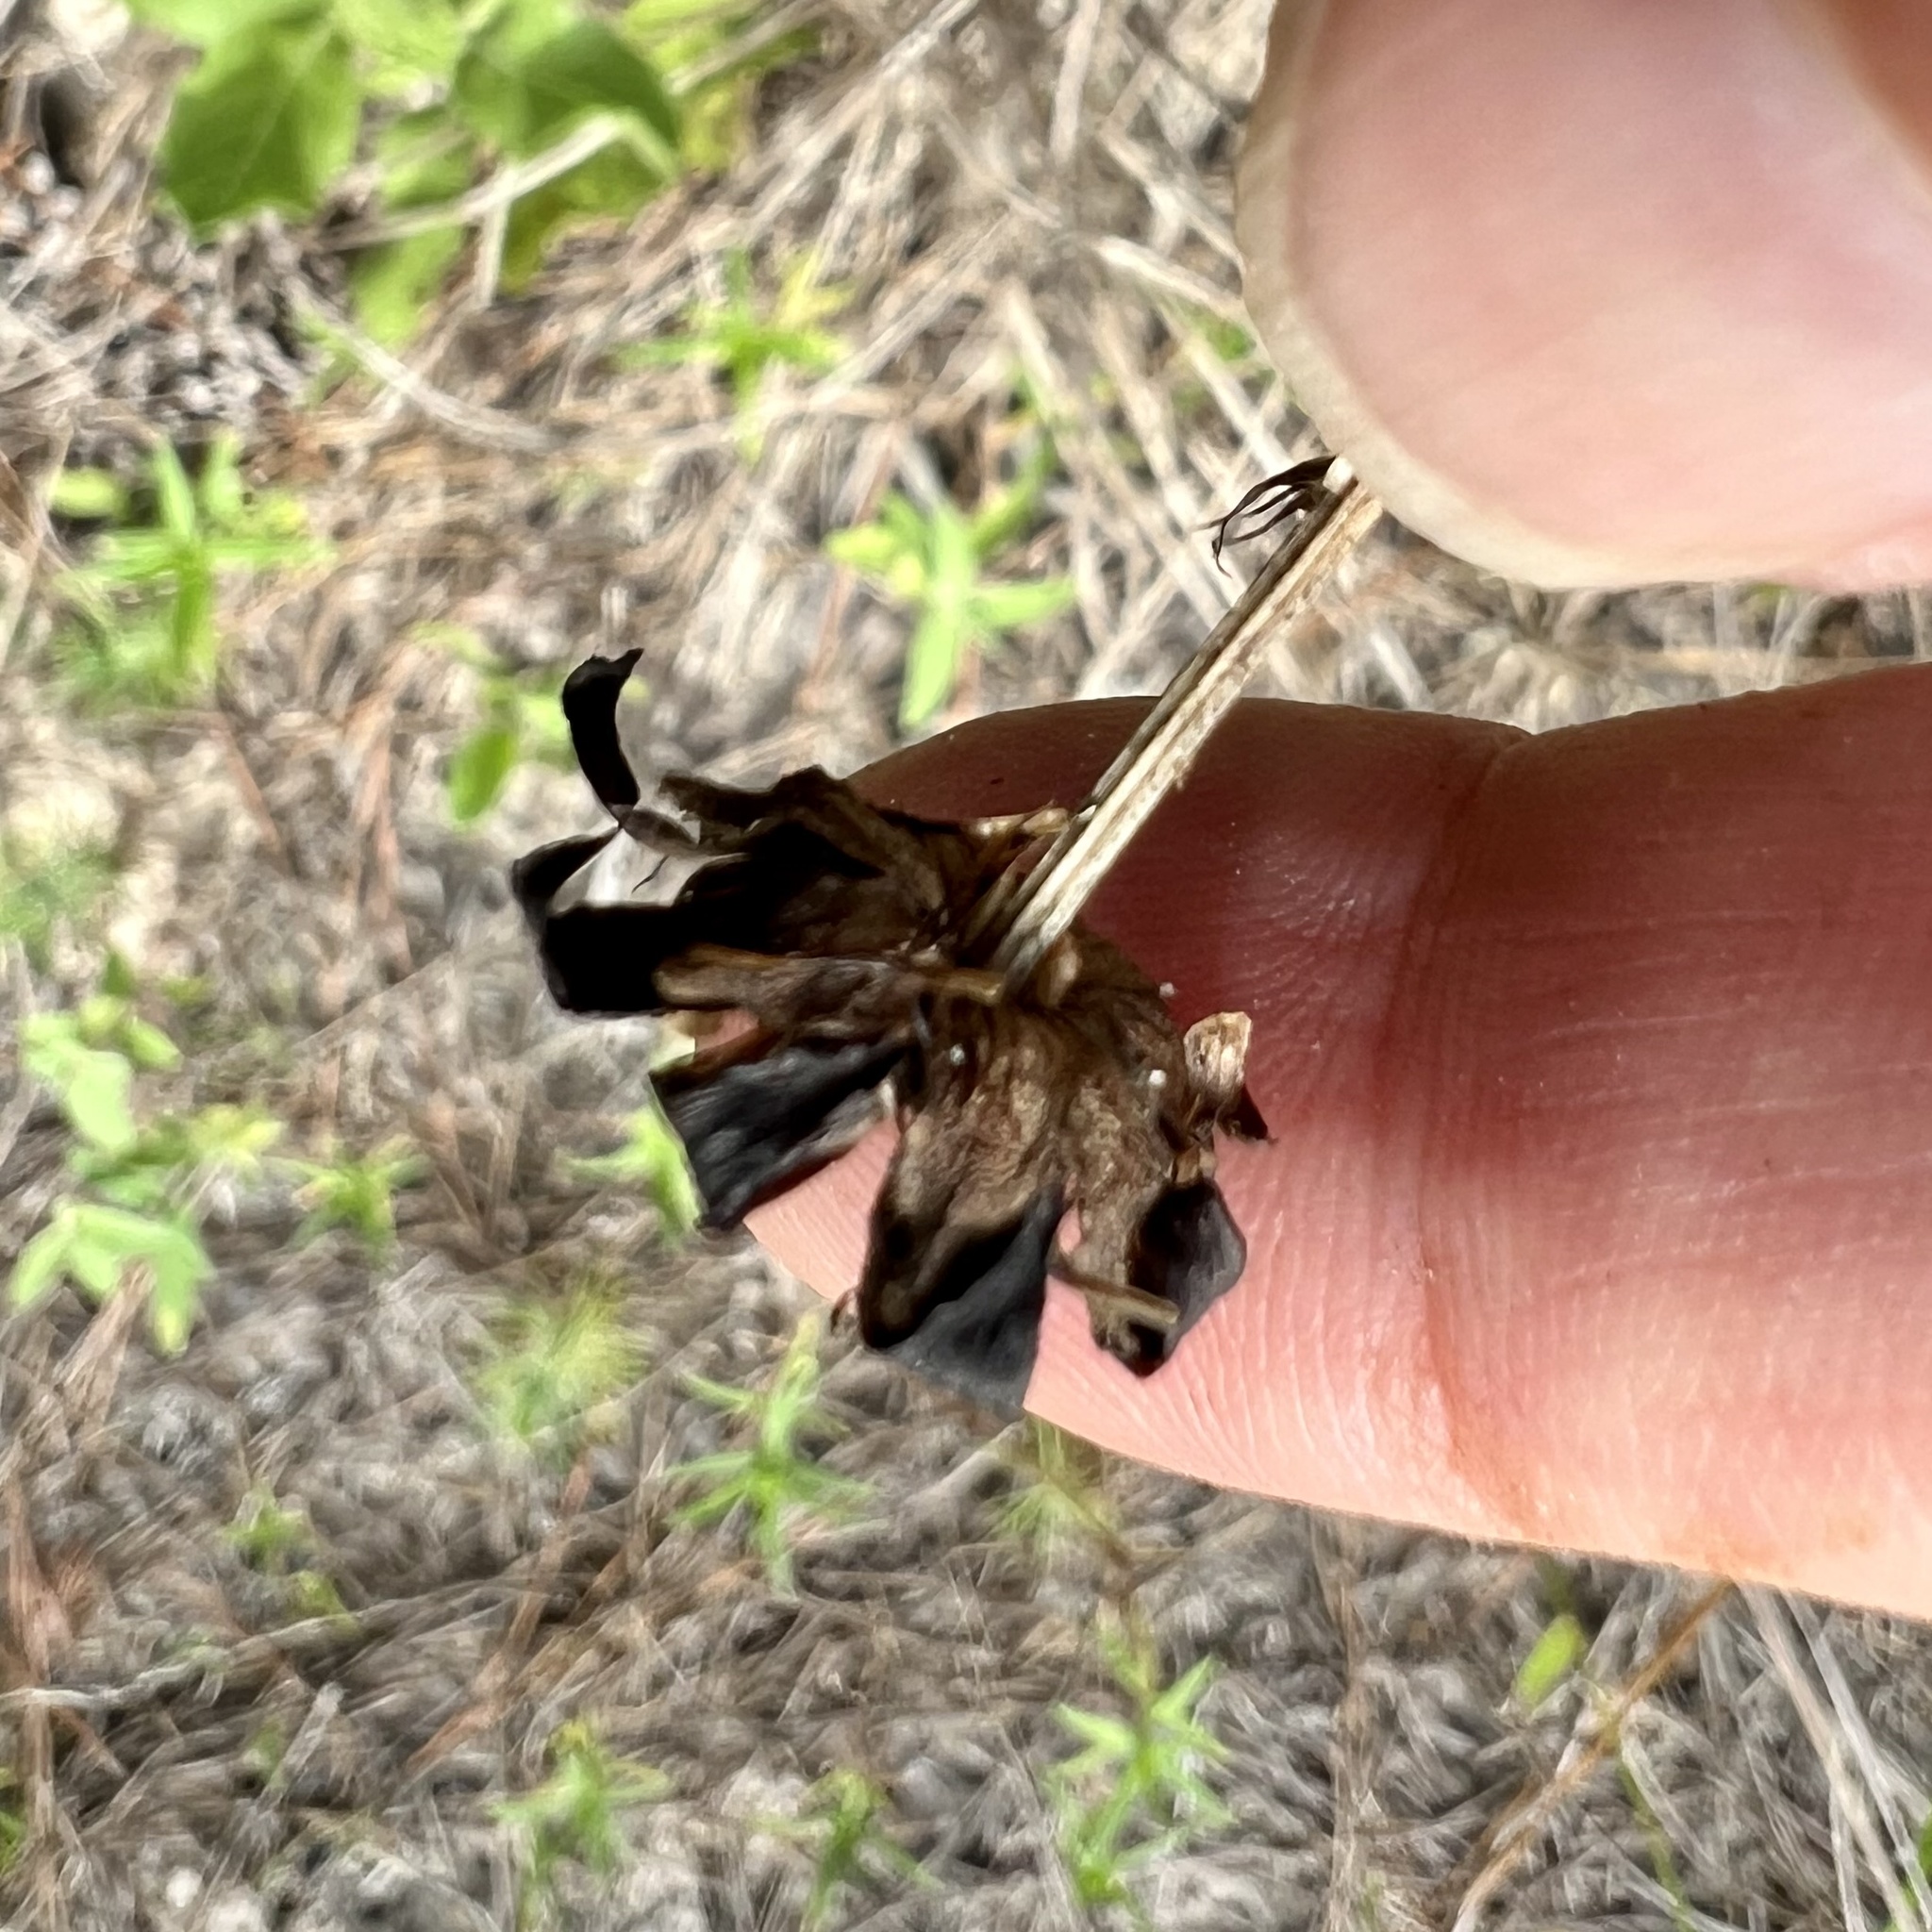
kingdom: Plantae
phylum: Tracheophyta
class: Magnoliopsida
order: Asterales
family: Asteraceae
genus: Coreopsis
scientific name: Coreopsis intermedia
